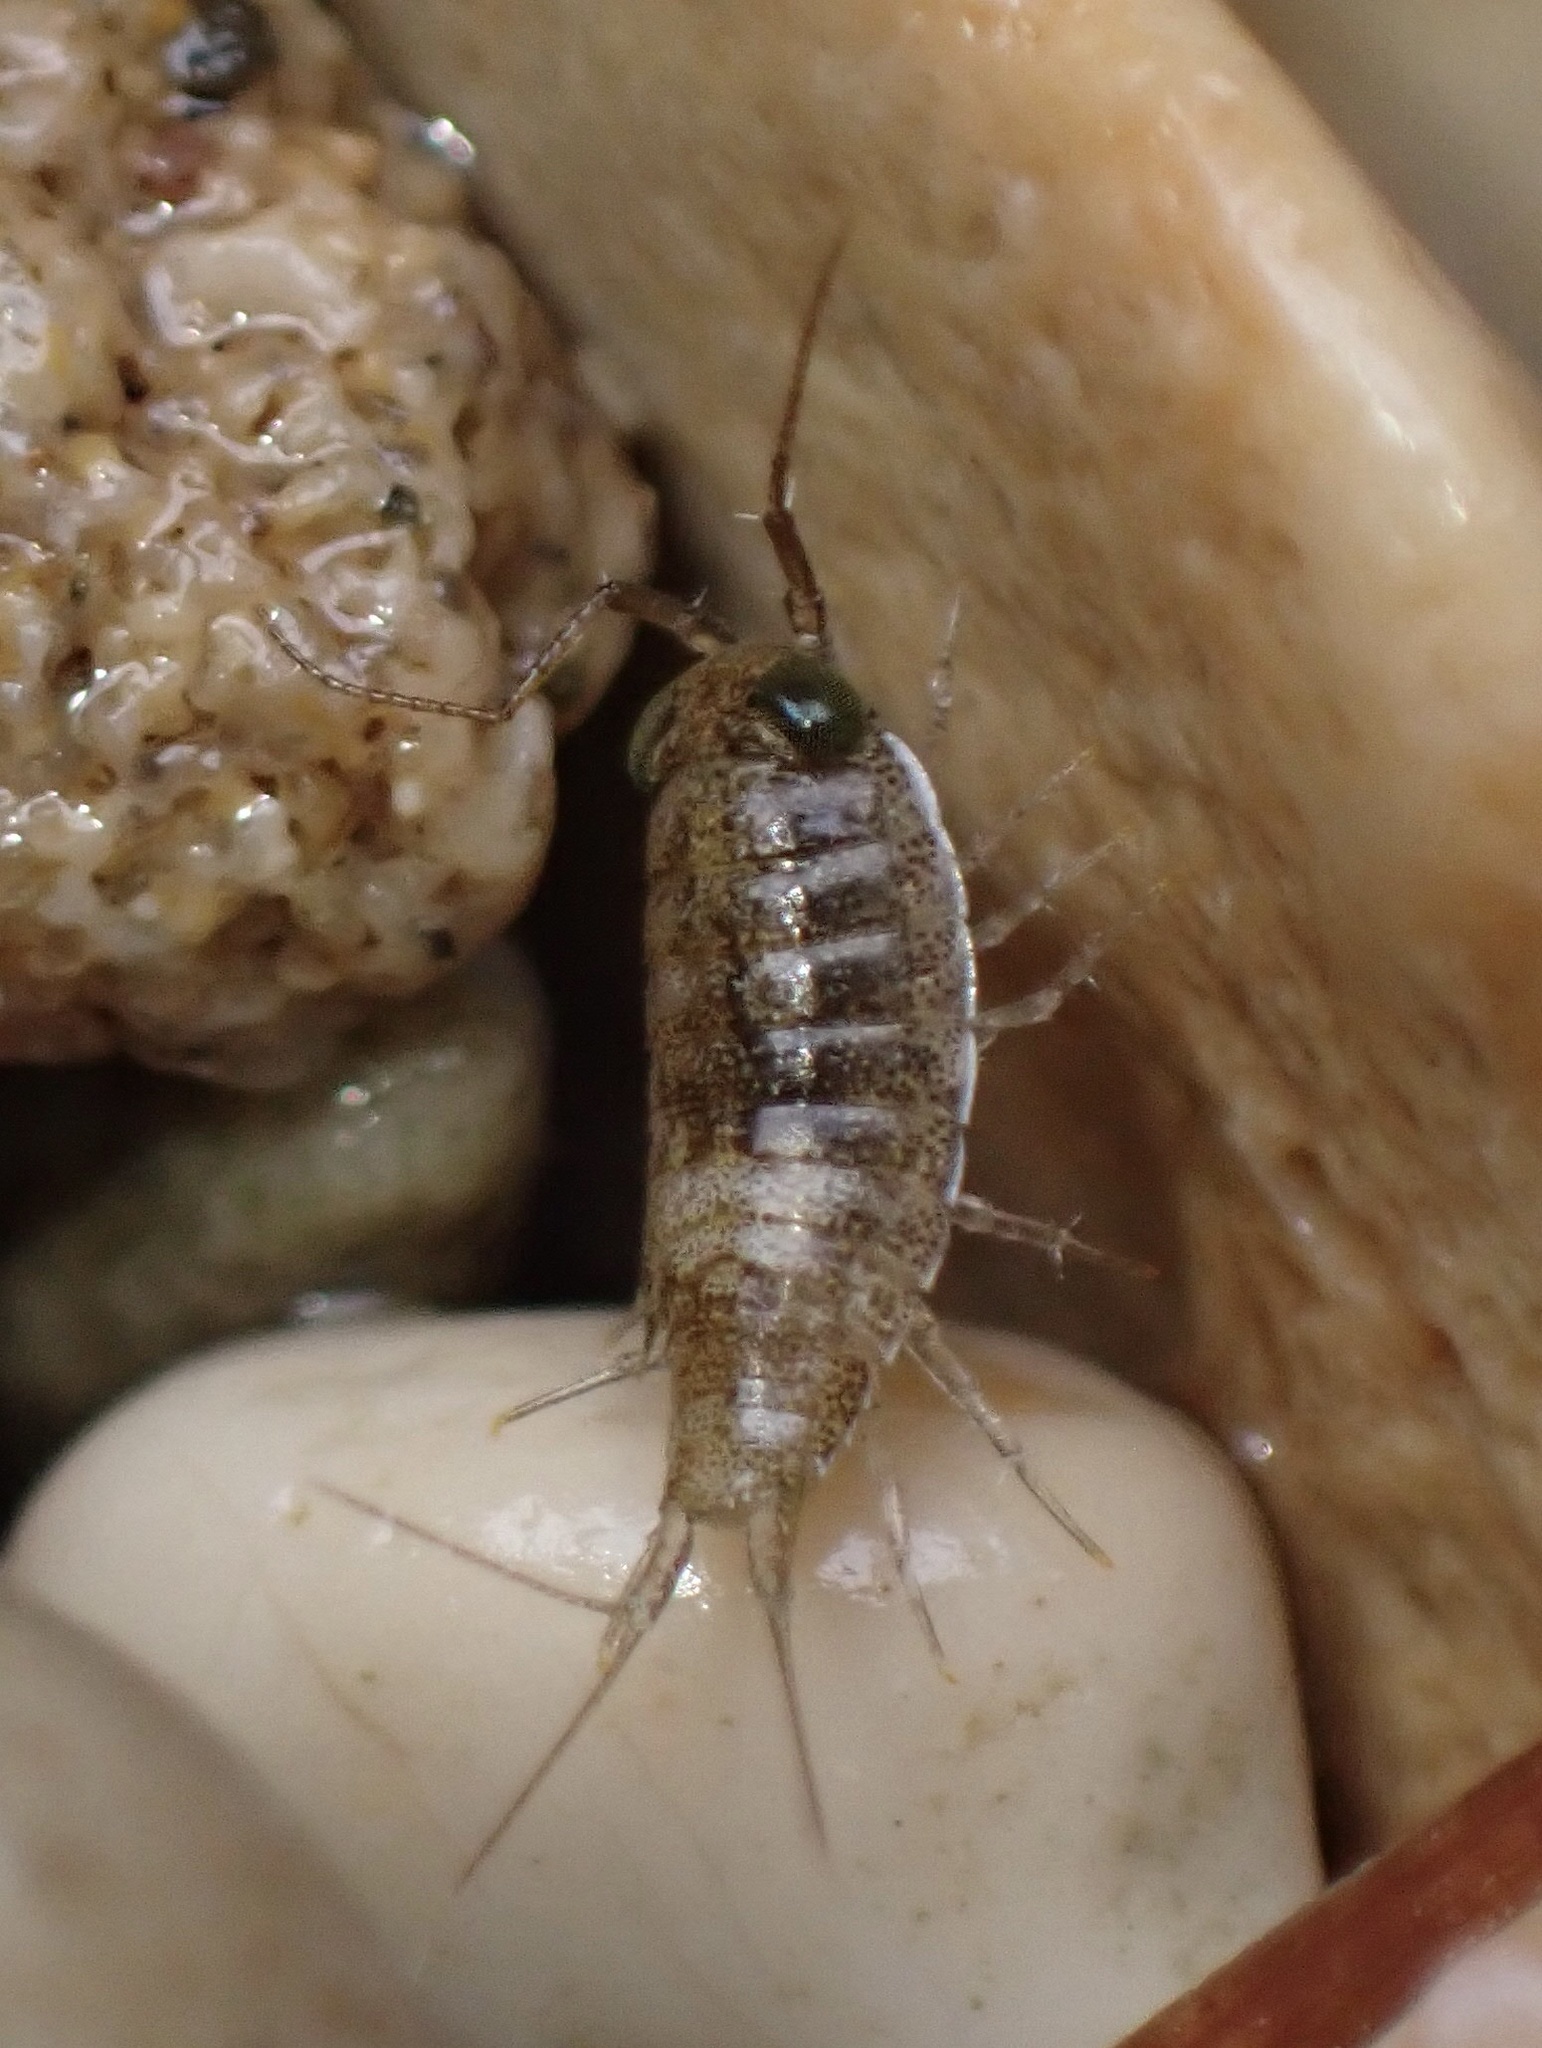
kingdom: Animalia
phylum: Arthropoda
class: Malacostraca
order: Isopoda
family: Ligiidae
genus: Ligia
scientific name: Ligia italica
